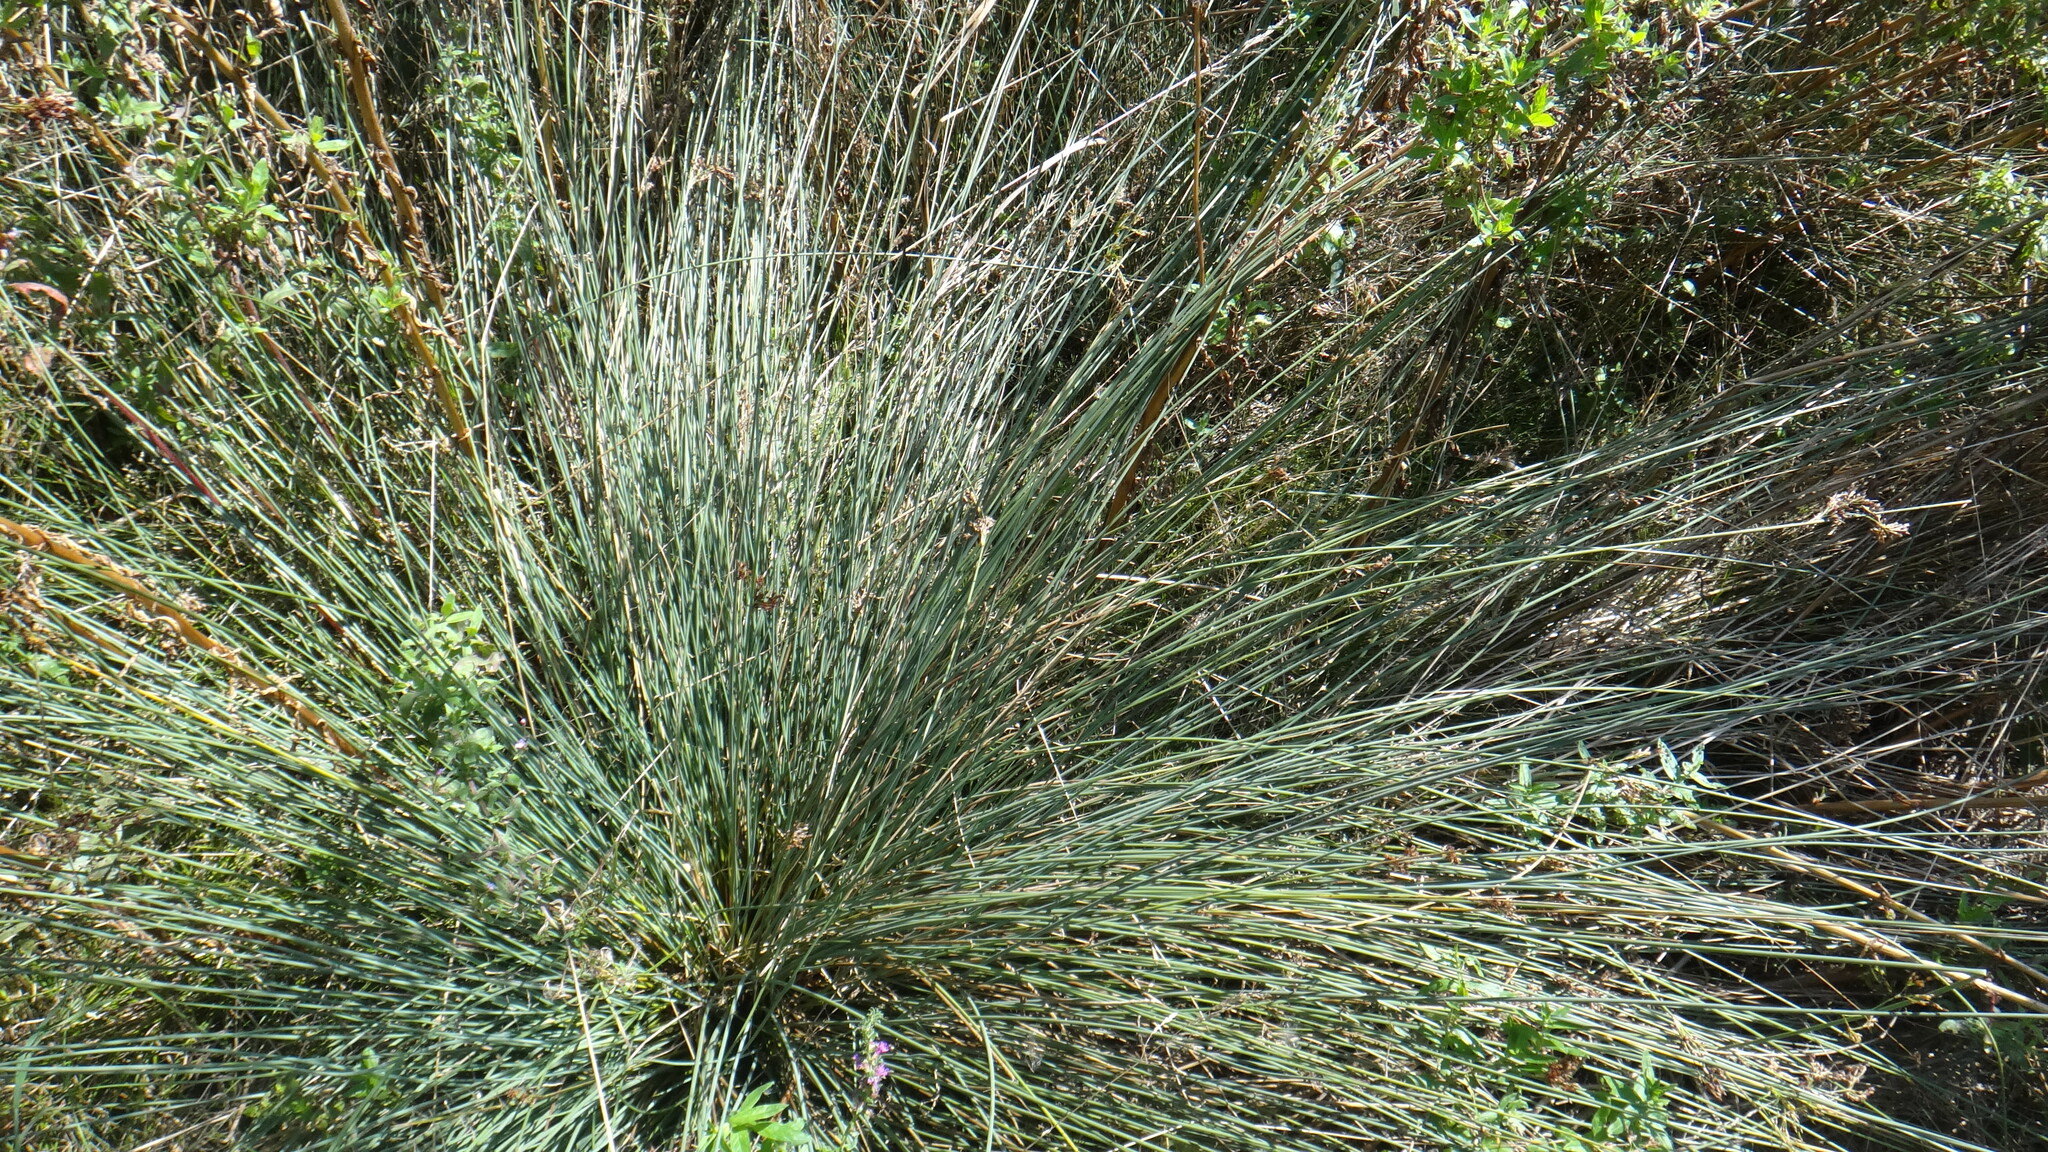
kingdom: Plantae
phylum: Tracheophyta
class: Liliopsida
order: Poales
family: Juncaceae
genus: Juncus
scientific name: Juncus inflexus
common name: Hard rush
